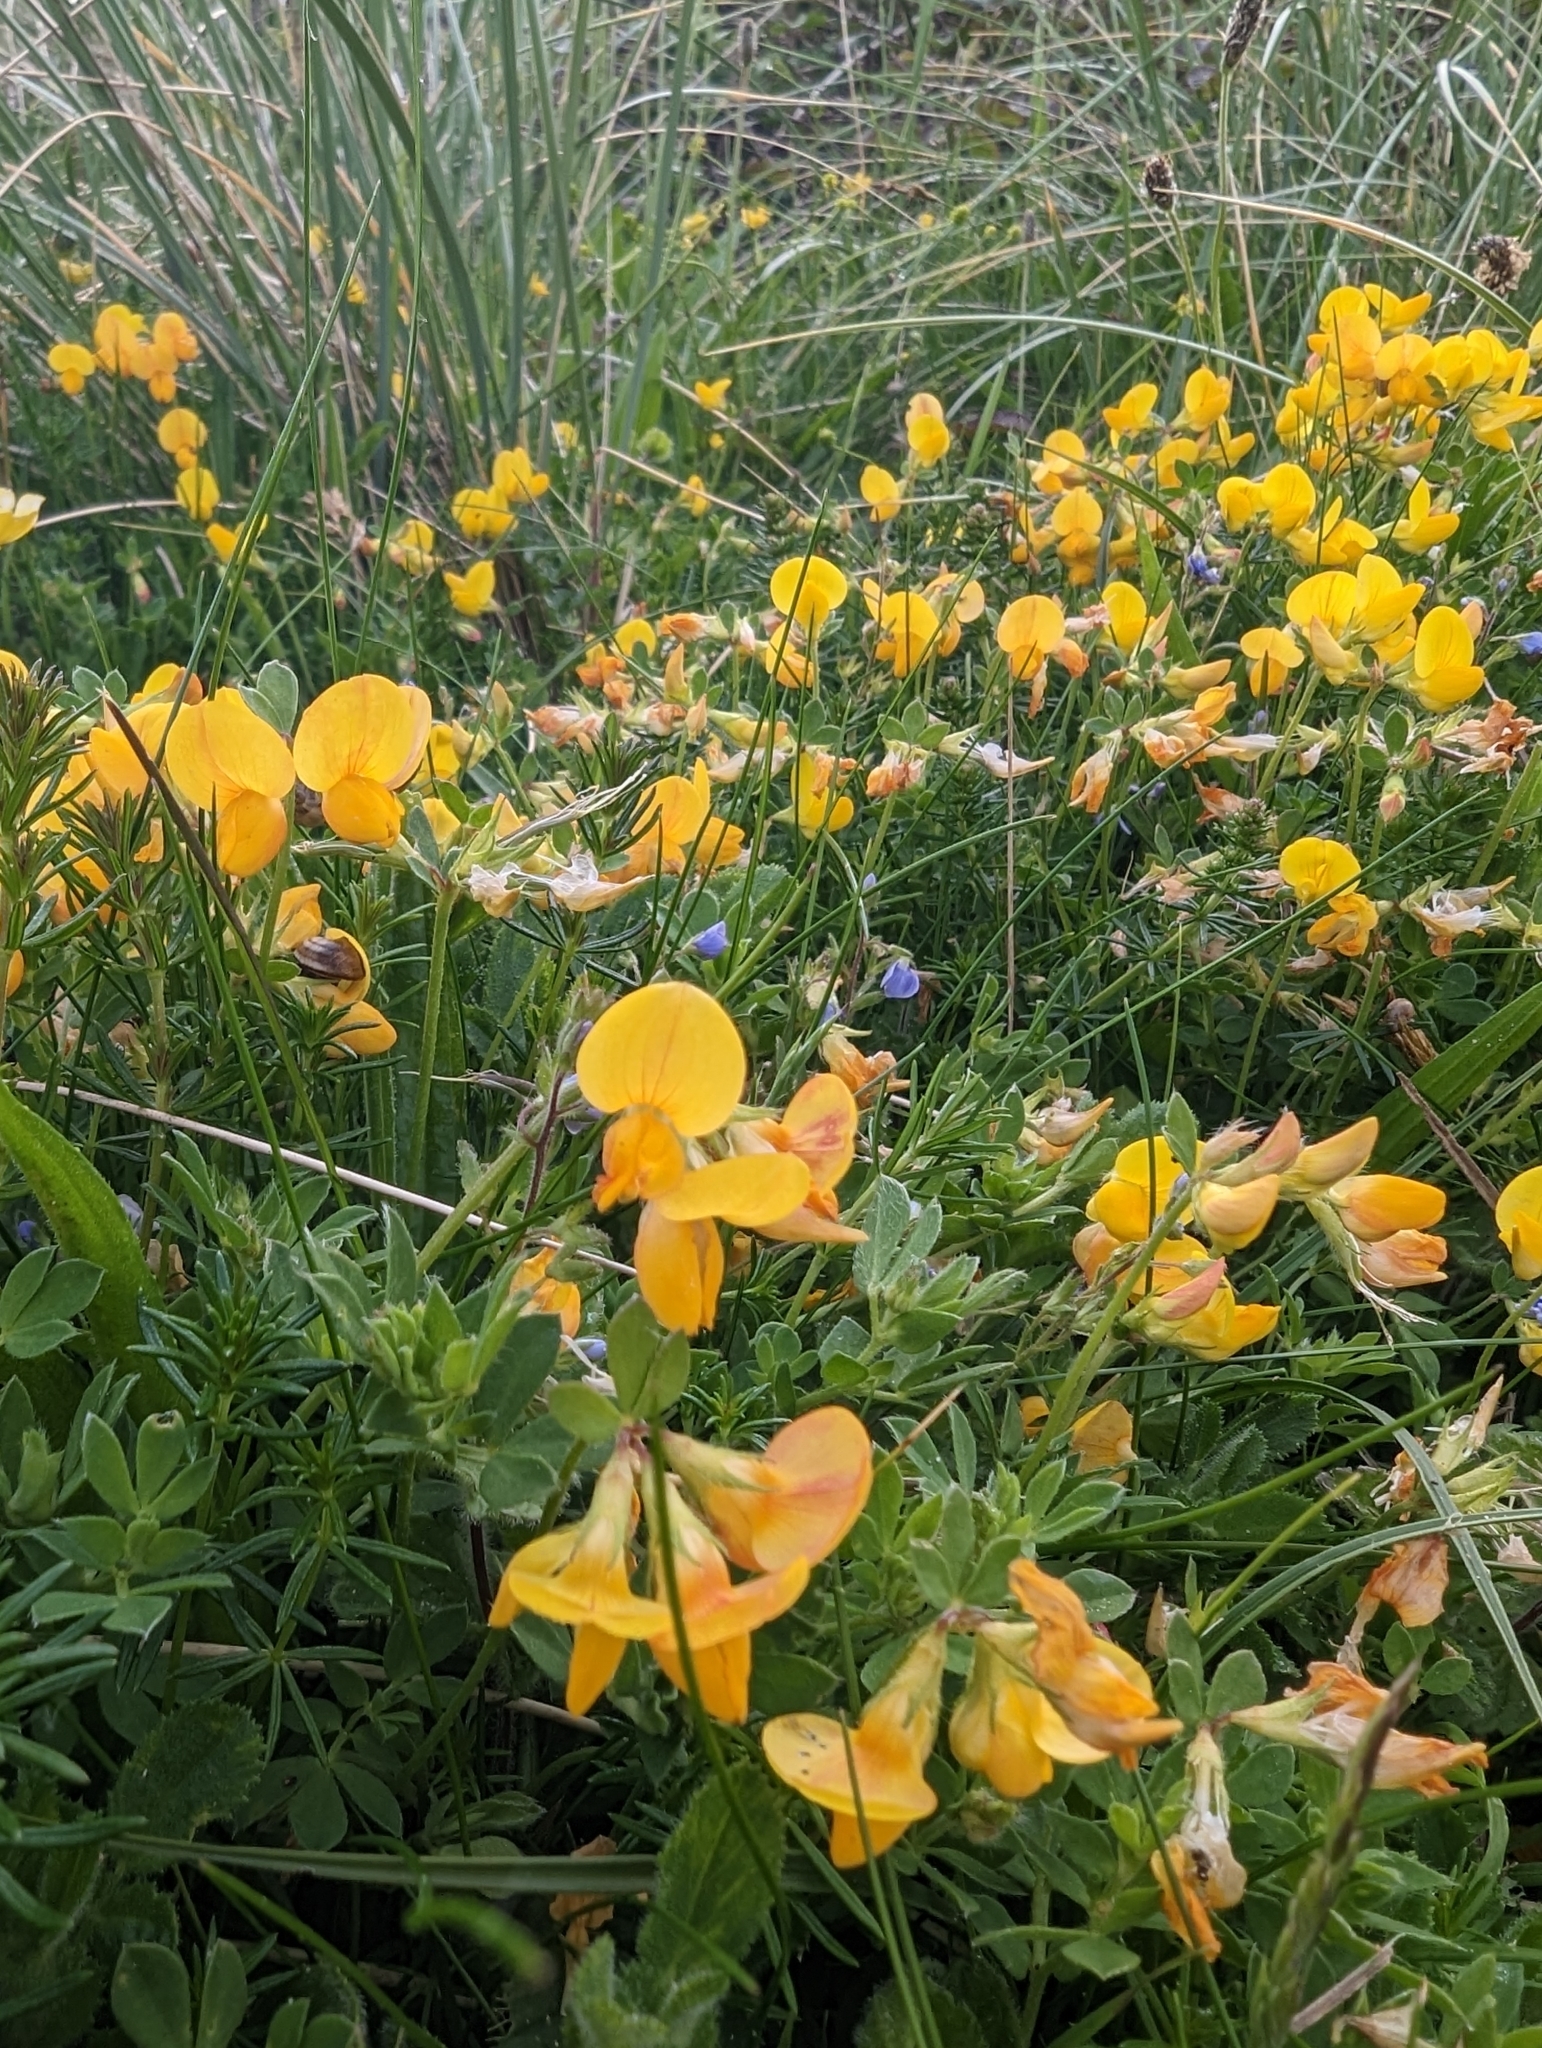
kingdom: Plantae
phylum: Tracheophyta
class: Magnoliopsida
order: Fabales
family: Fabaceae
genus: Lotus
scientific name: Lotus corniculatus
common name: Common bird's-foot-trefoil
